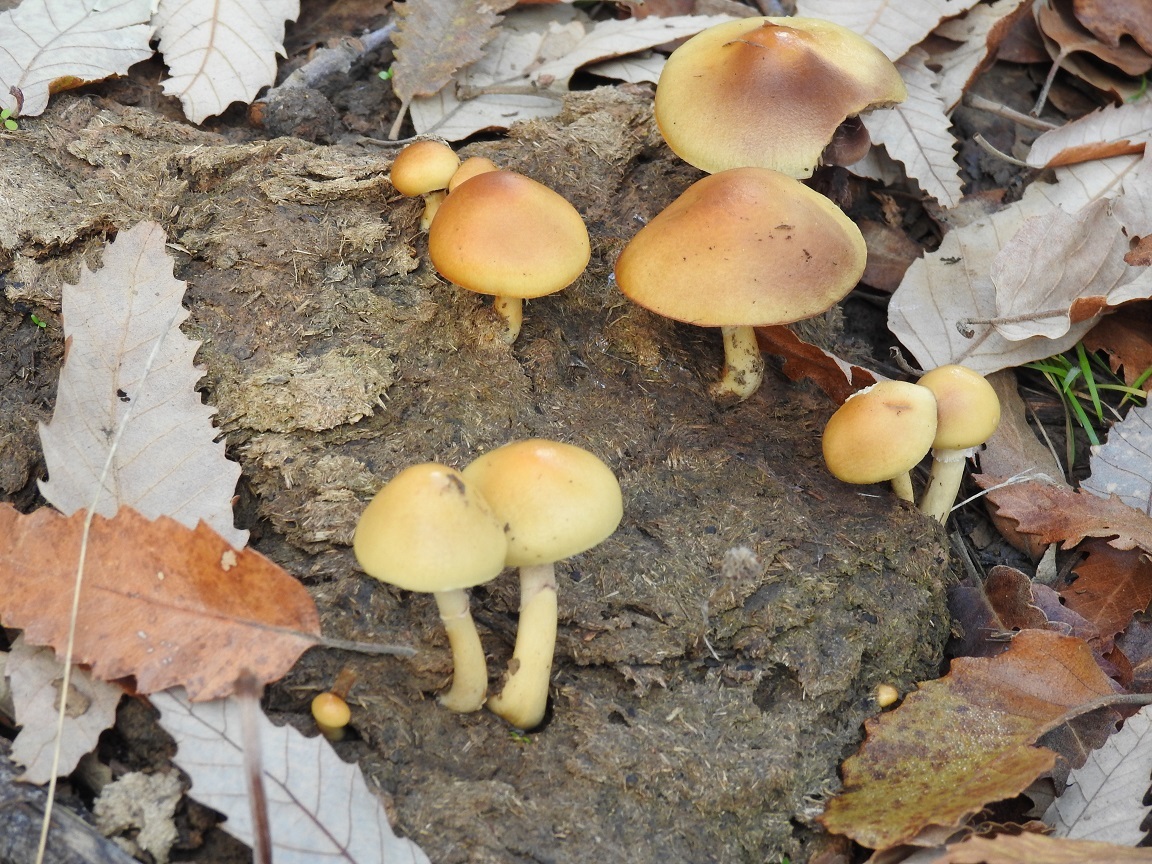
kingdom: Fungi
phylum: Basidiomycota
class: Agaricomycetes
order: Agaricales
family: Strophariaceae
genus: Protostropharia
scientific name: Protostropharia semiglobata
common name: Dung roundhead
